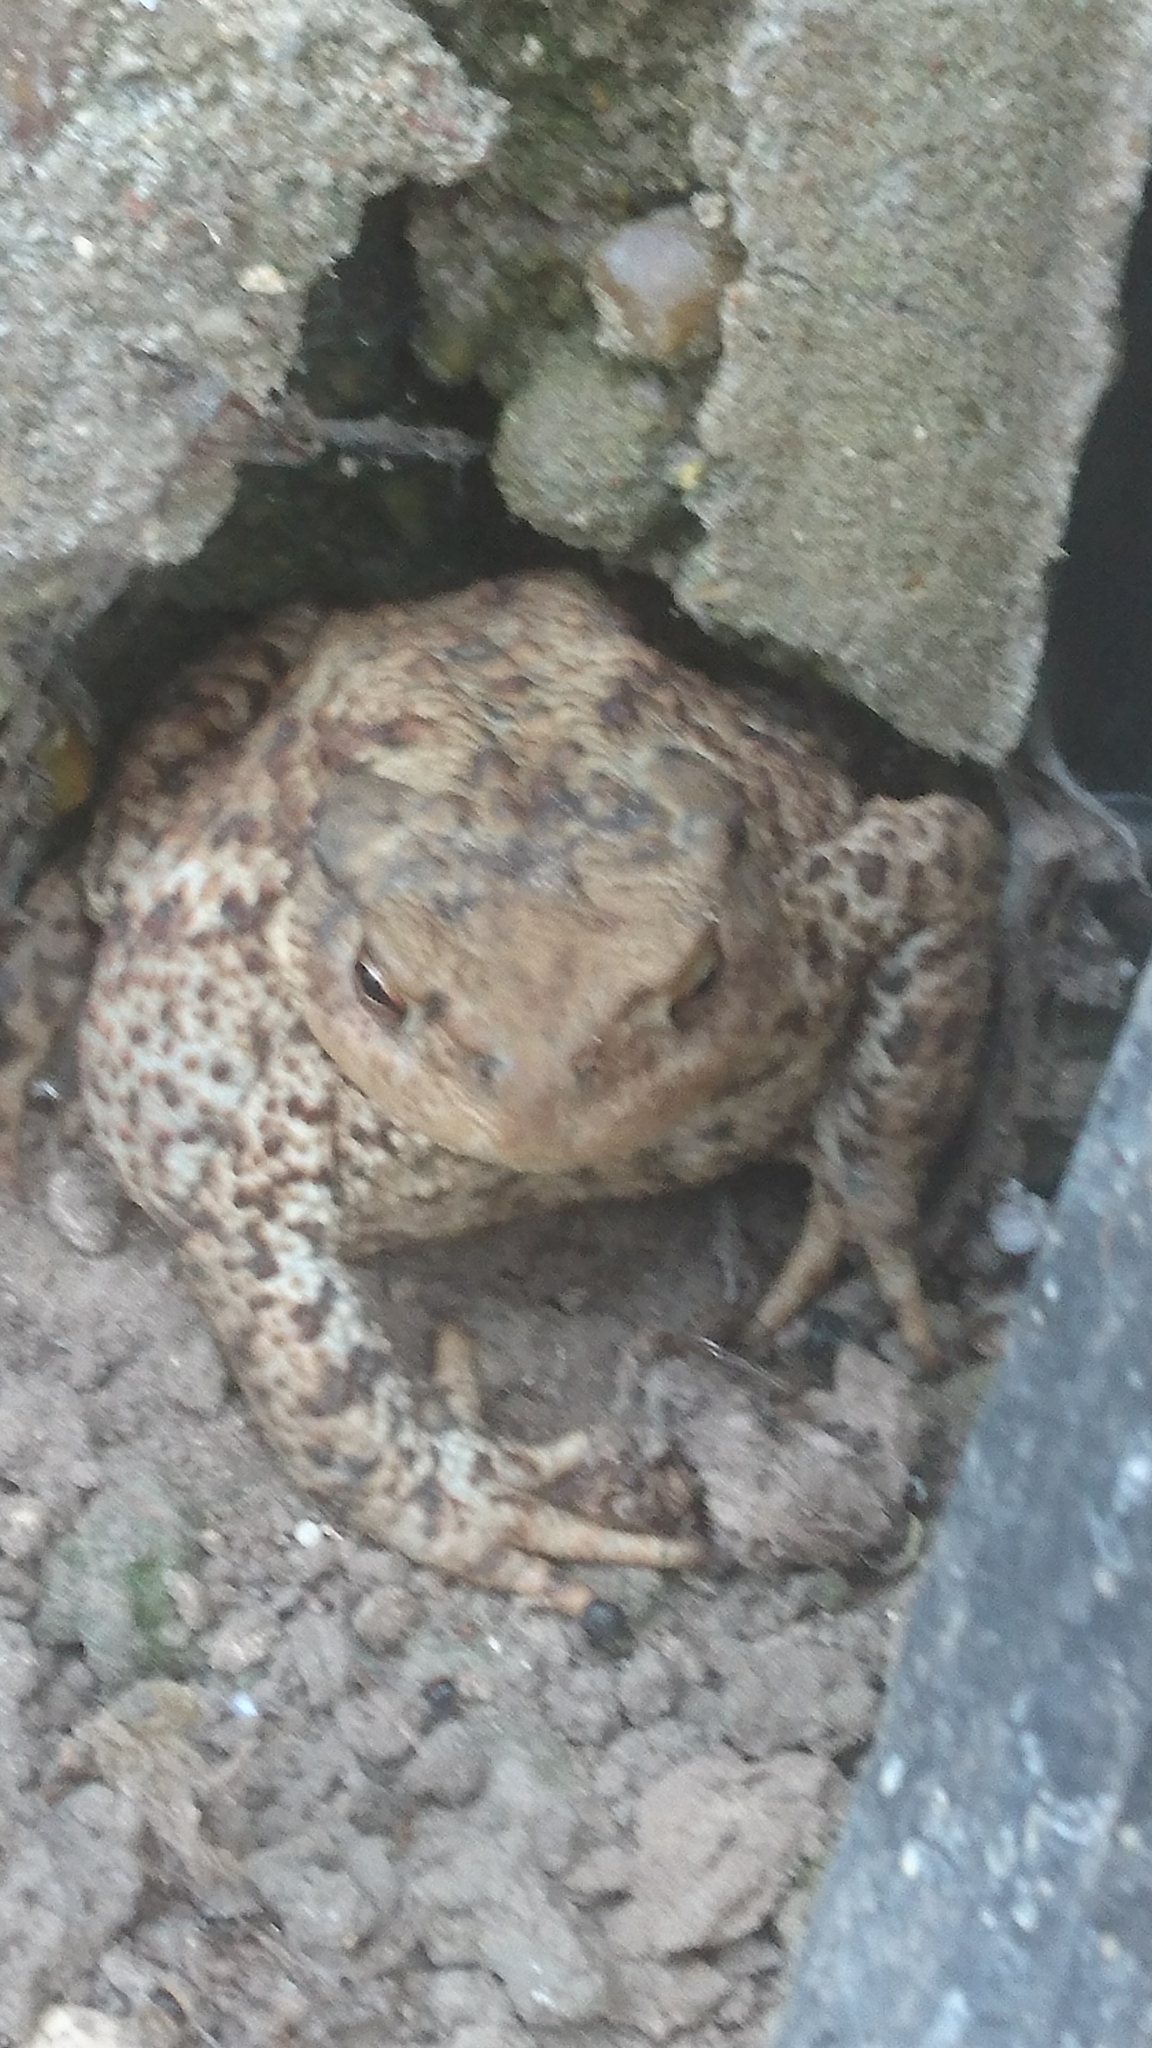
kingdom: Animalia
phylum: Chordata
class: Amphibia
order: Anura
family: Bufonidae
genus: Bufo
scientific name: Bufo bufo
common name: Common toad
